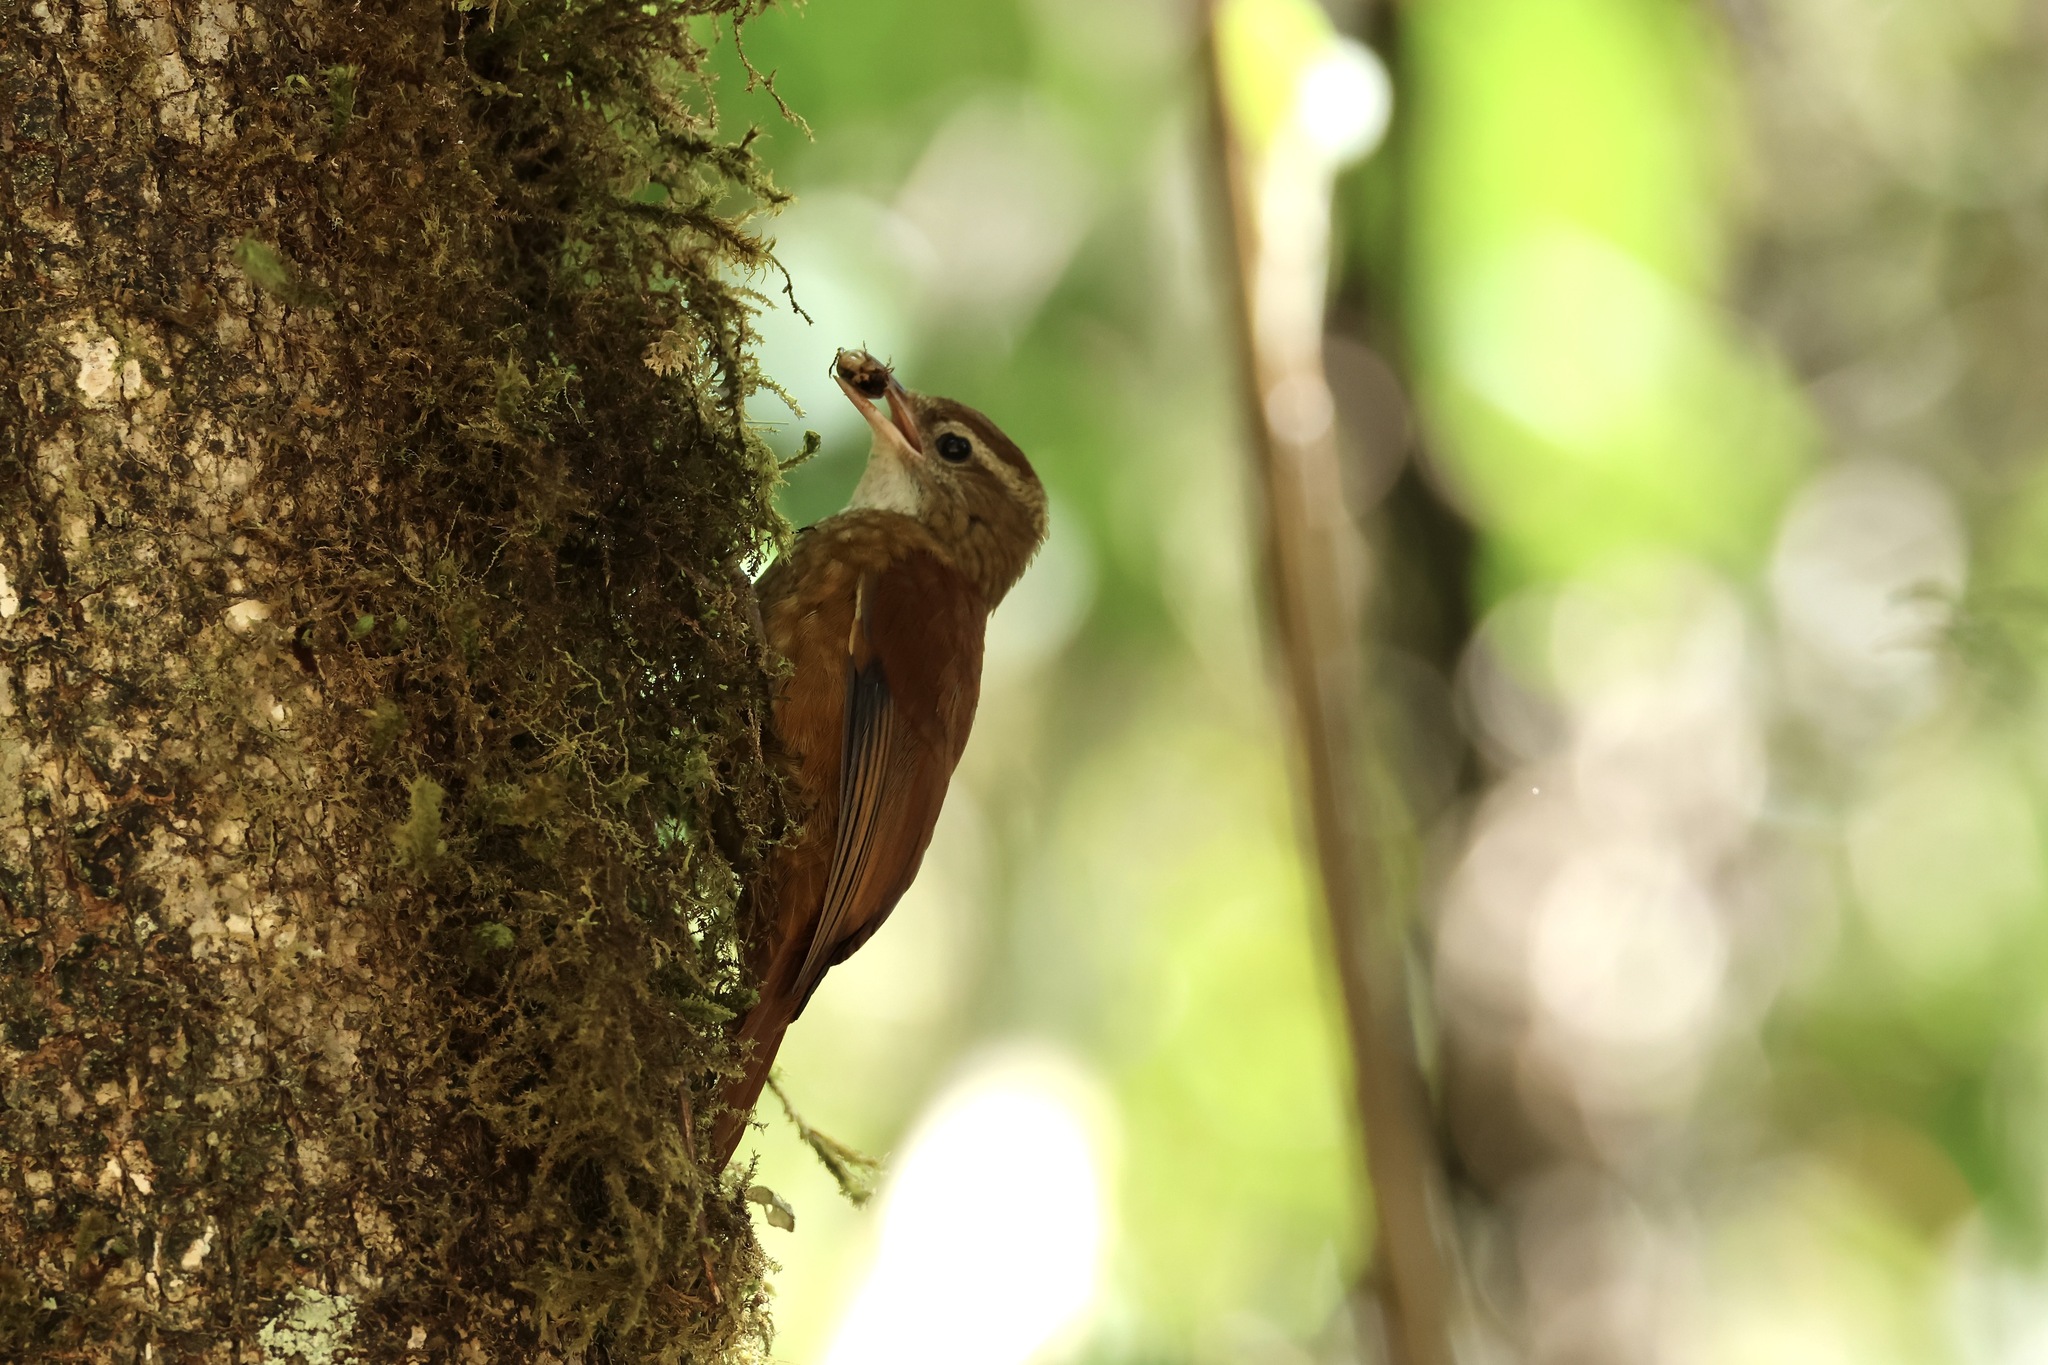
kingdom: Animalia
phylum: Chordata
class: Aves
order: Passeriformes
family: Furnariidae
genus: Margarornis
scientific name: Margarornis rubiginosus
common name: Ruddy treerunner
